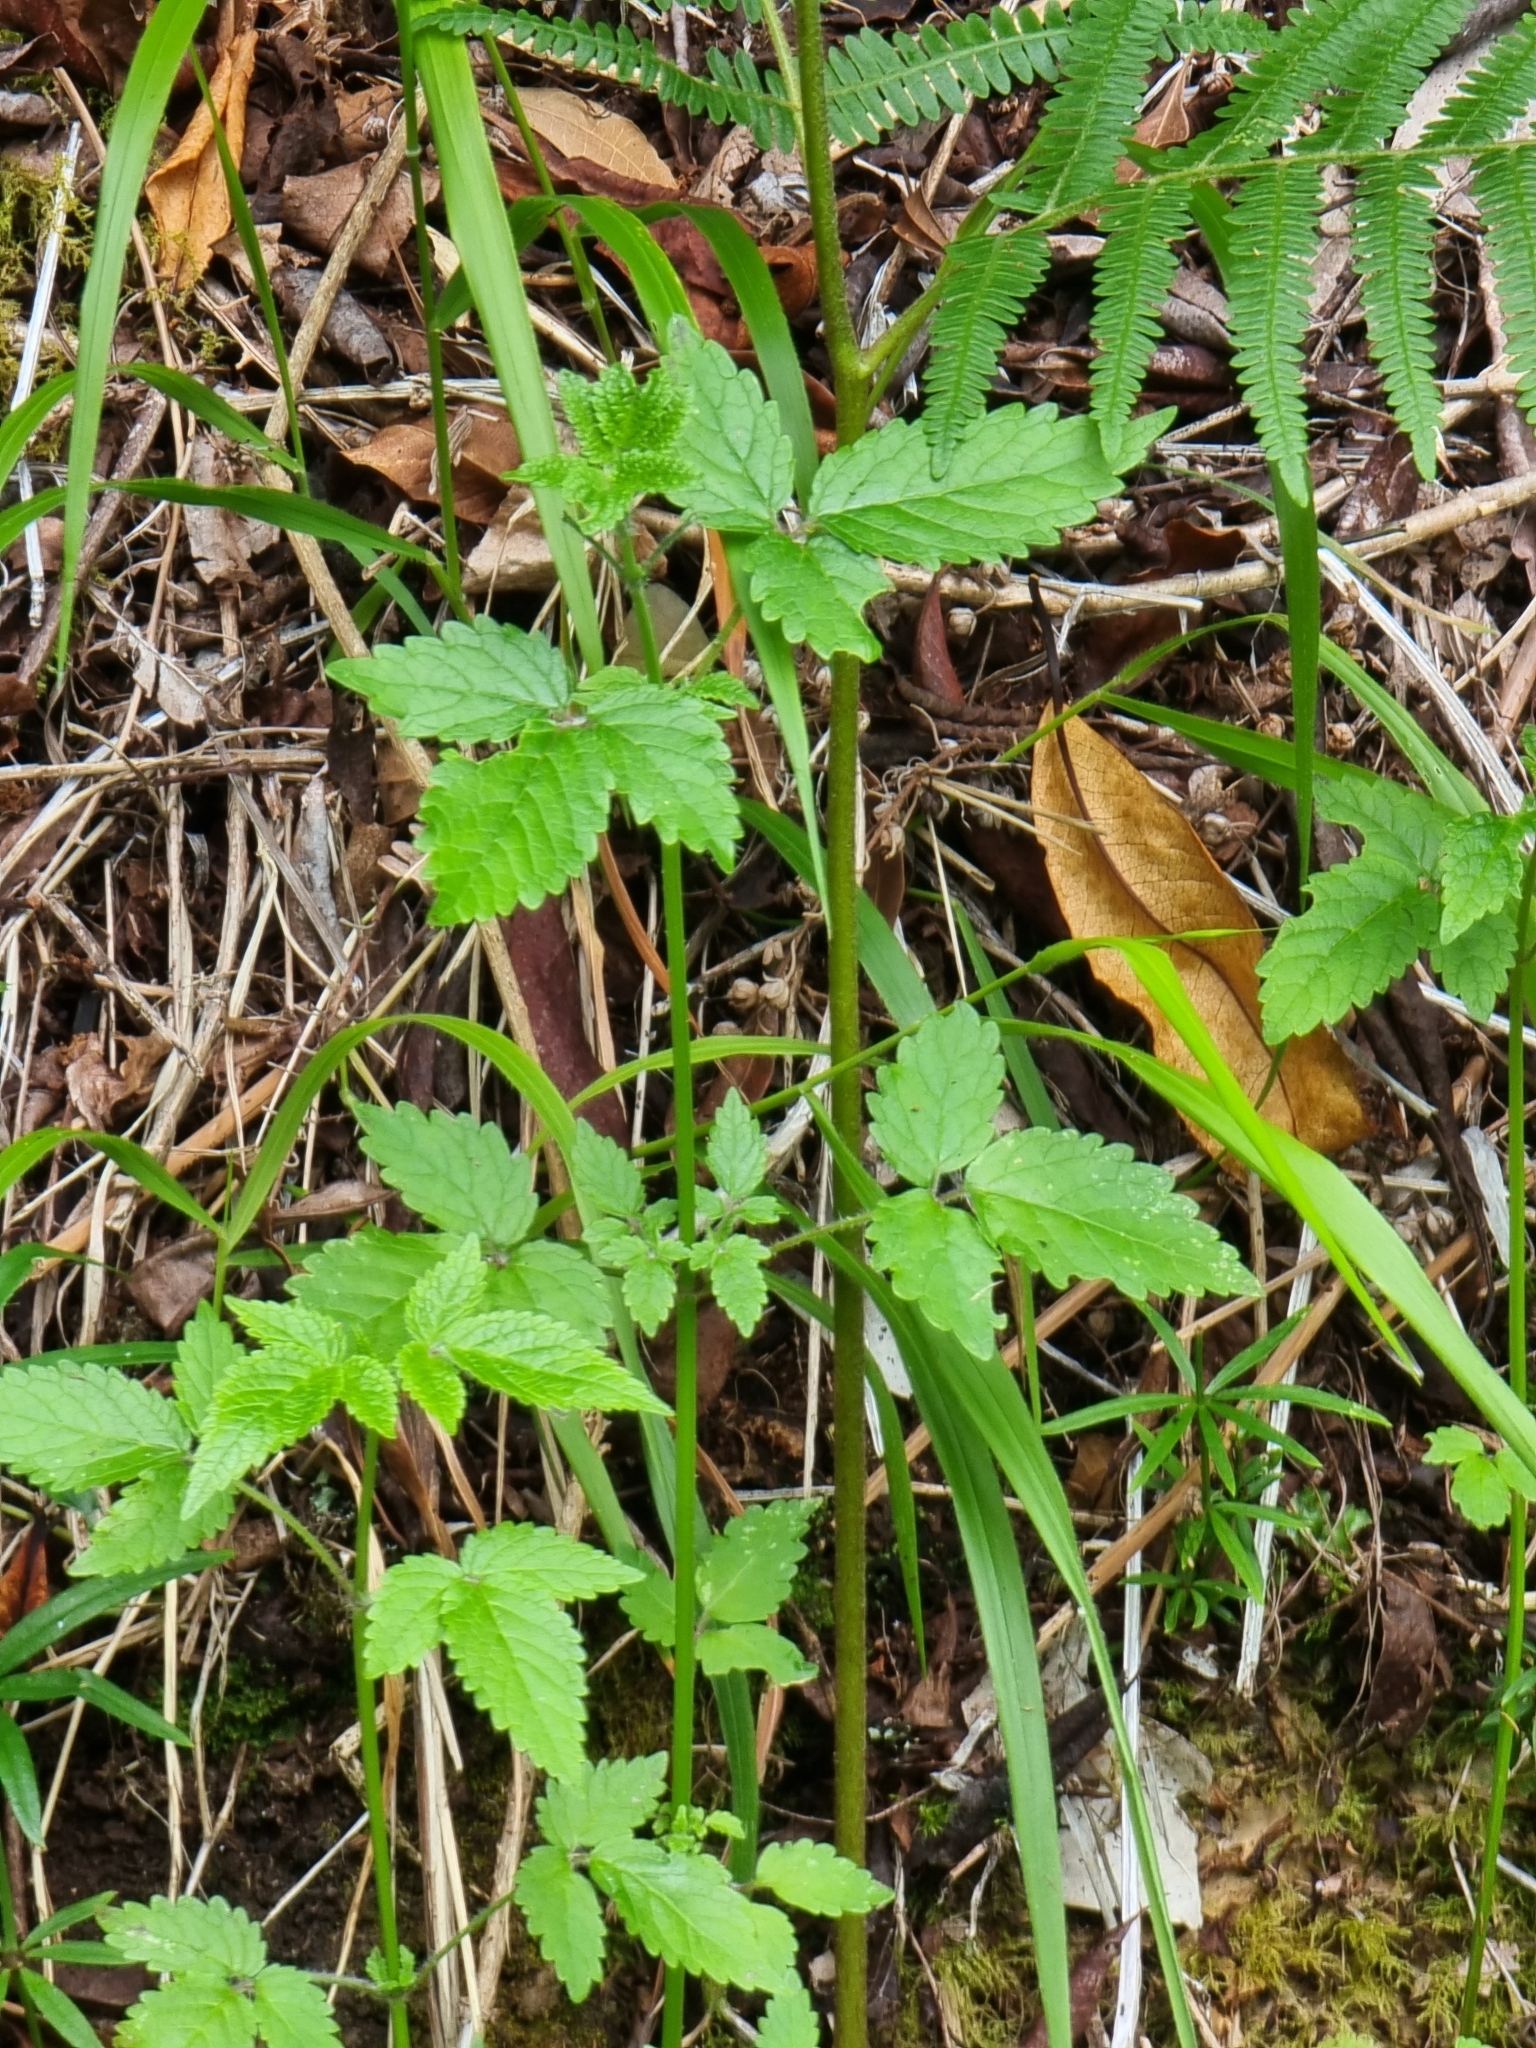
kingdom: Plantae
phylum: Tracheophyta
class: Magnoliopsida
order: Lamiales
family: Lamiaceae
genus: Cedronella
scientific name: Cedronella canariensis
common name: Canary islands balm
